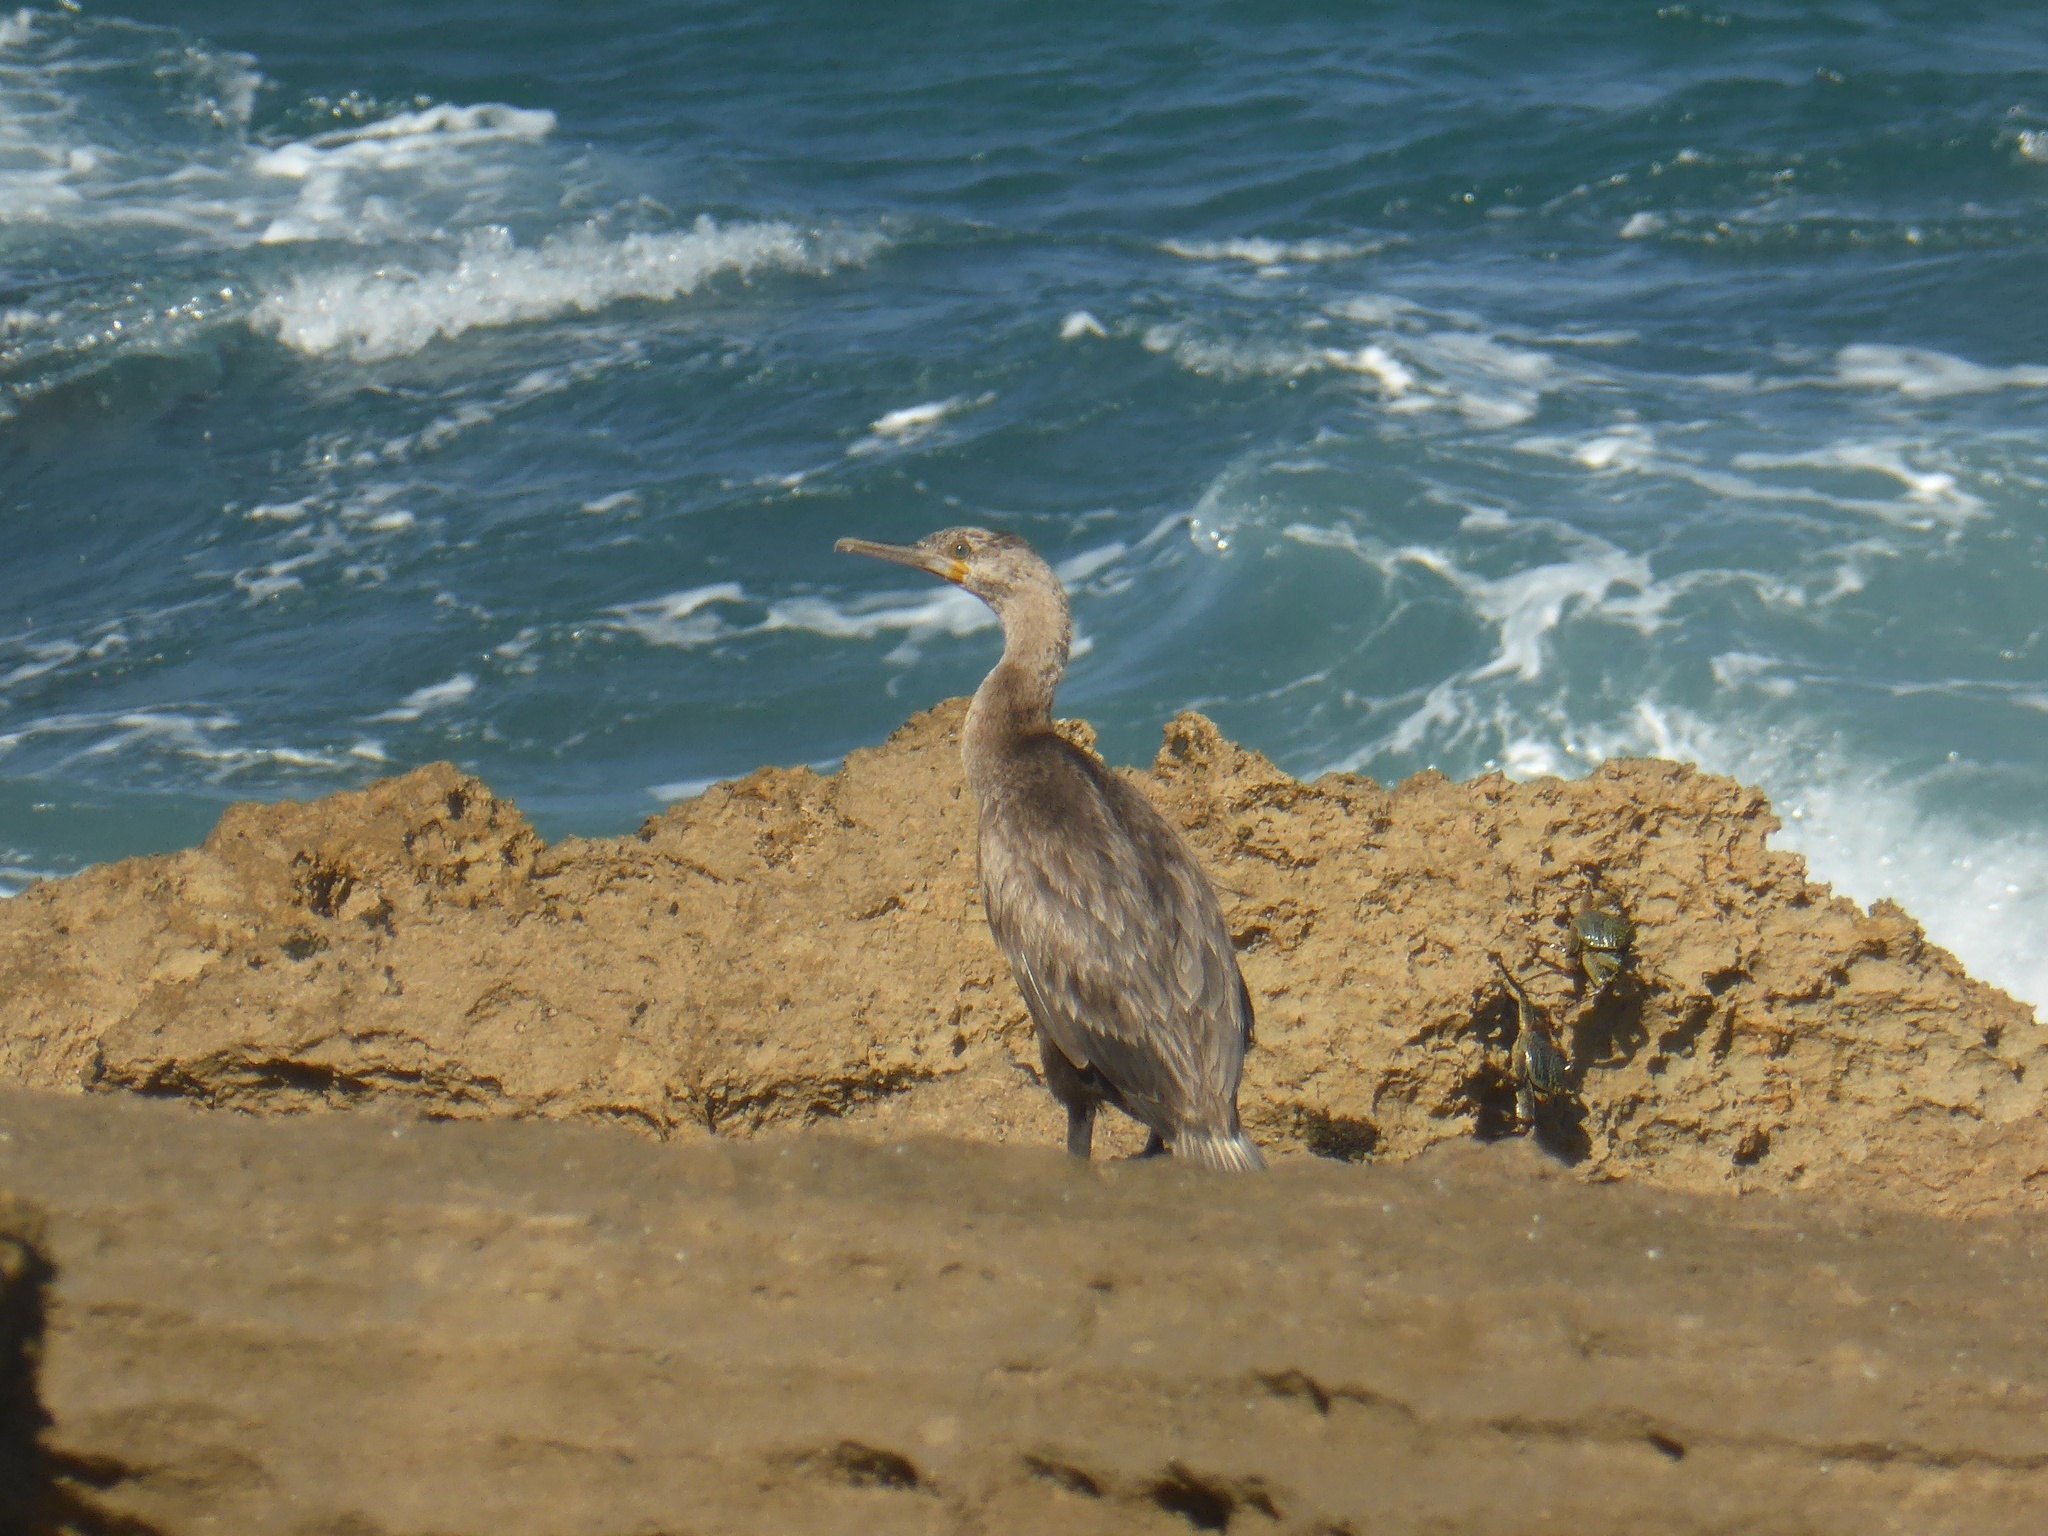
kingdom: Animalia
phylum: Chordata
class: Aves
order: Suliformes
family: Phalacrocoracidae
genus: Phalacrocorax
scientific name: Phalacrocorax capensis
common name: Cape cormorant
